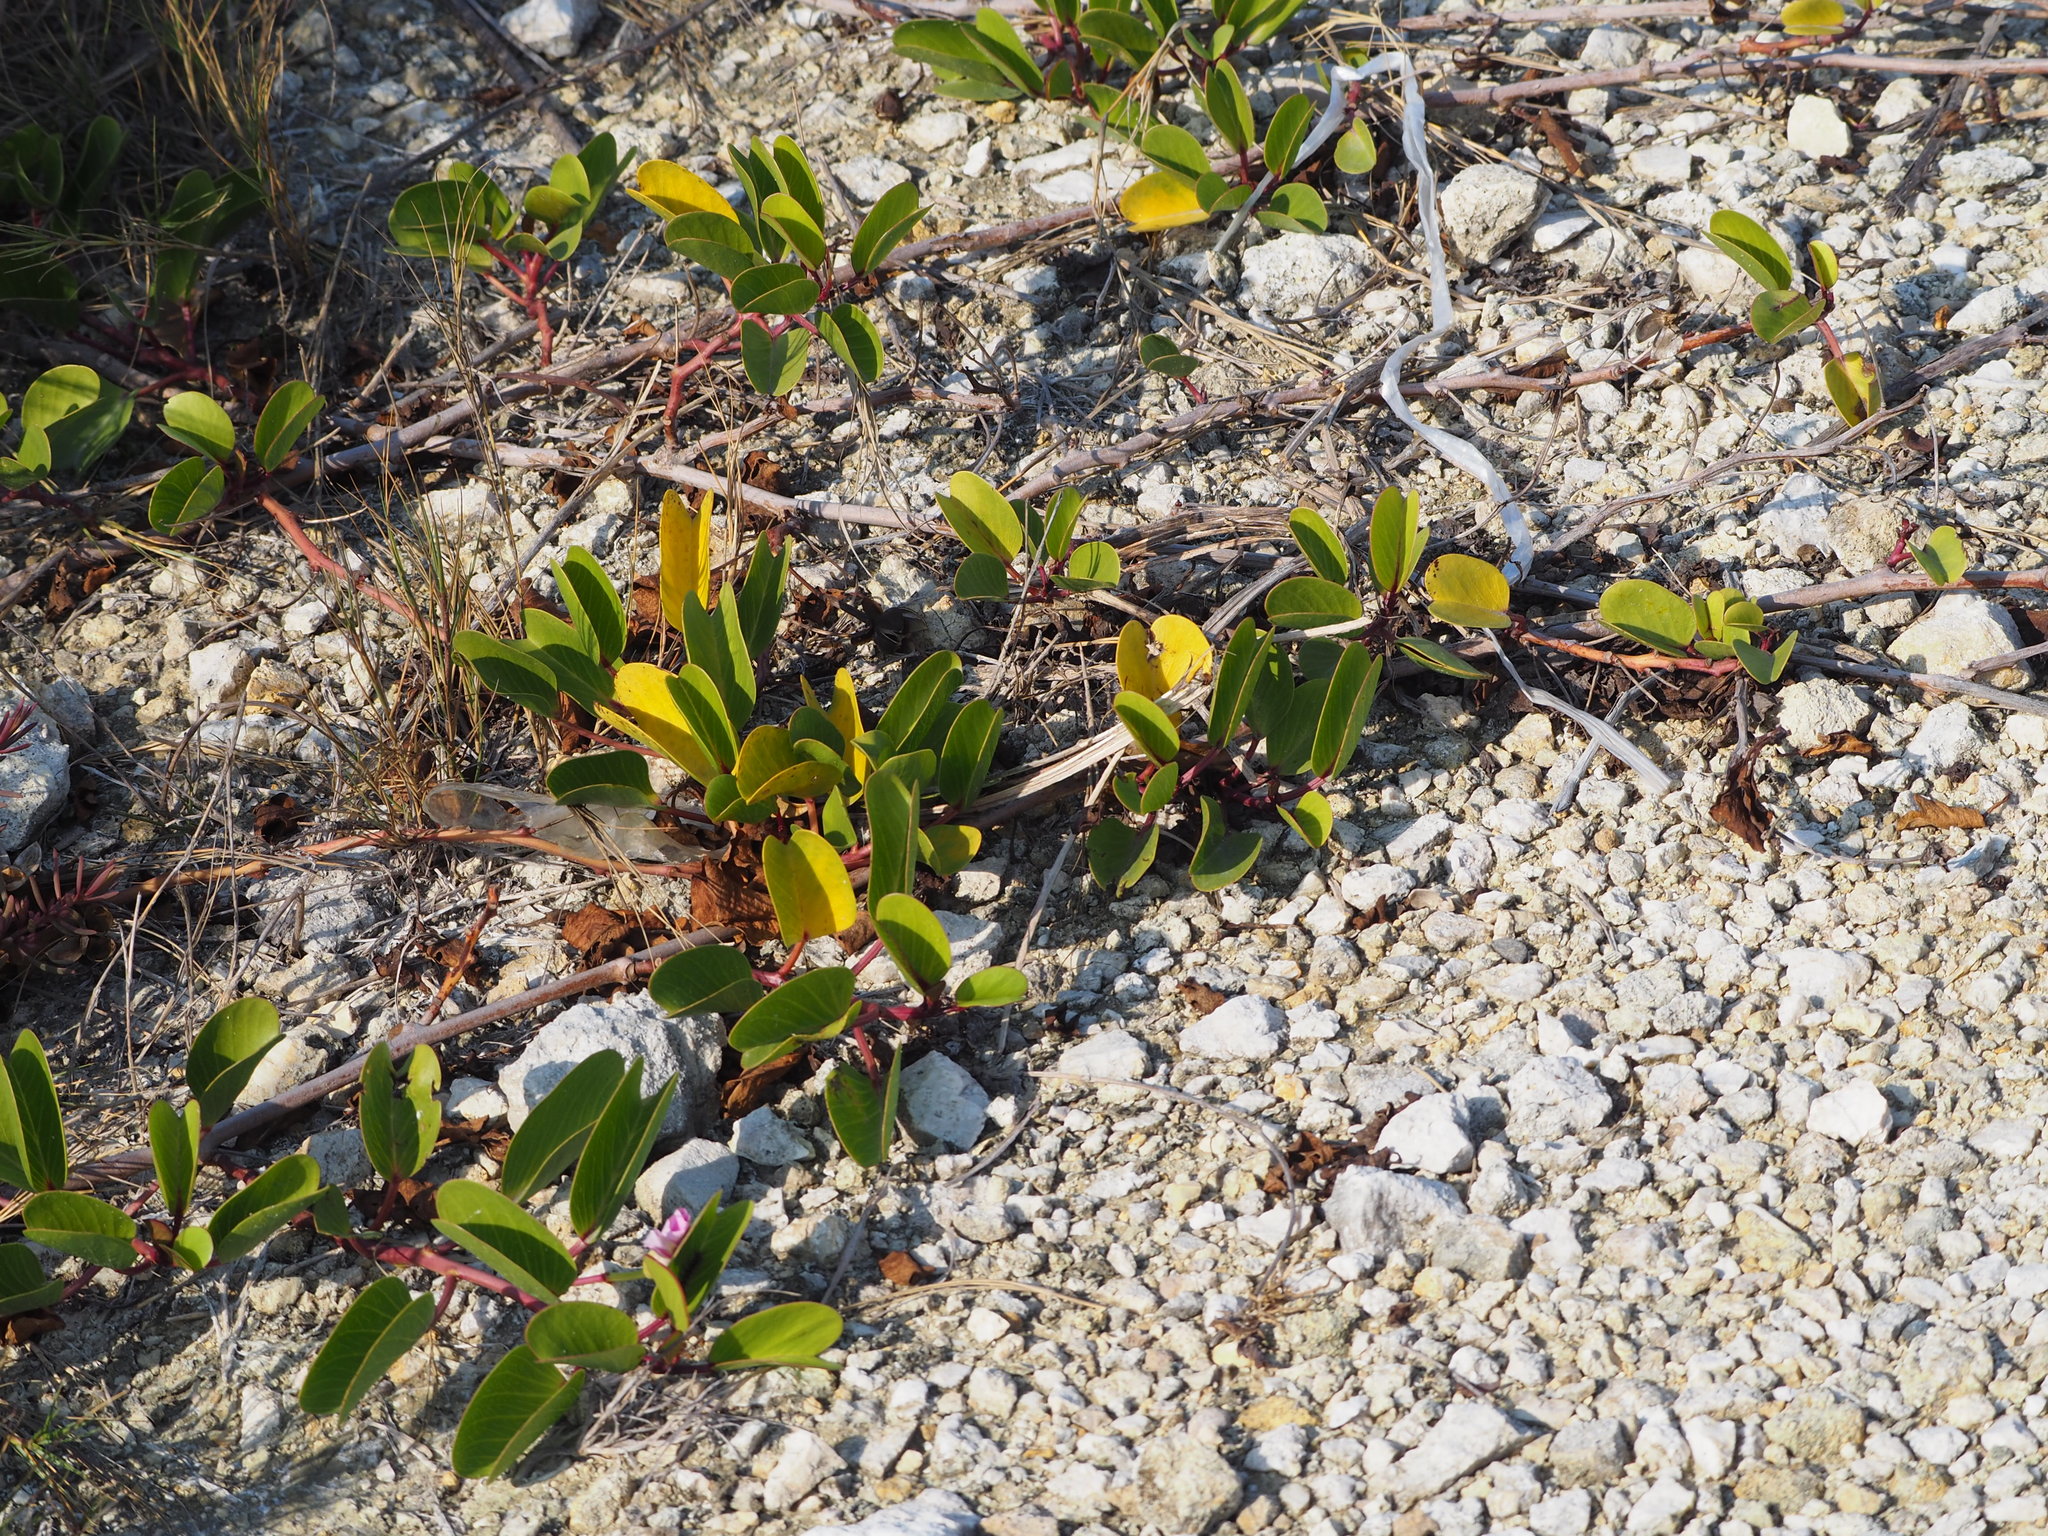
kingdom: Plantae
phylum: Tracheophyta
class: Magnoliopsida
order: Solanales
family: Convolvulaceae
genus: Ipomoea
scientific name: Ipomoea pes-caprae
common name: Beach morning glory
